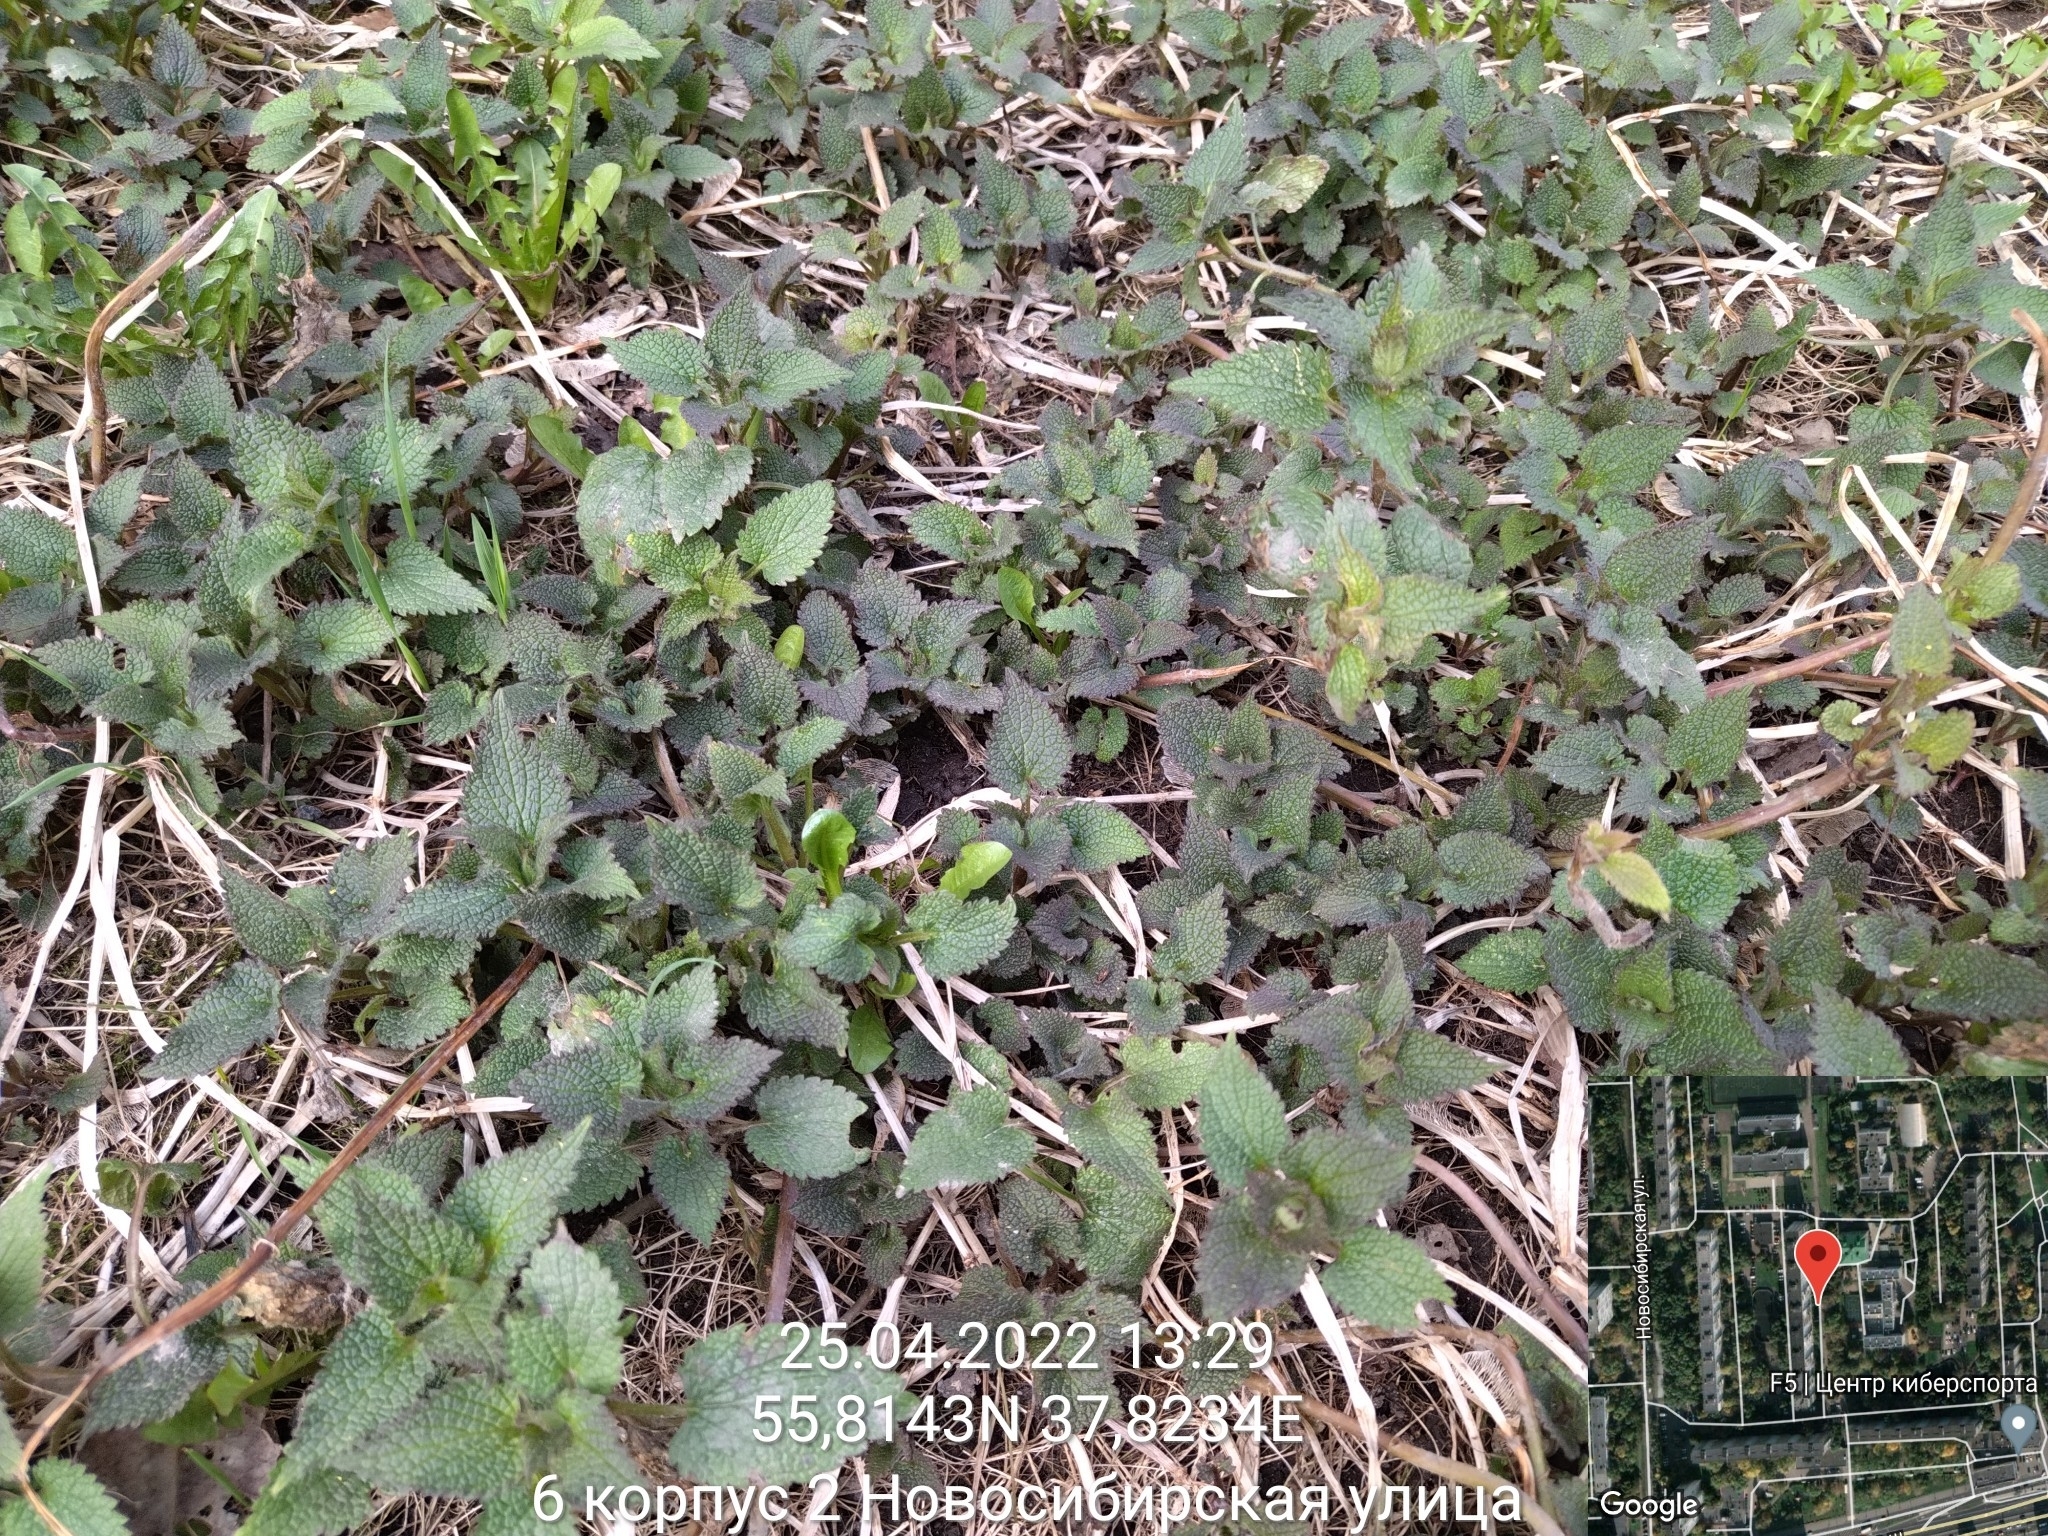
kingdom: Plantae
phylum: Tracheophyta
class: Magnoliopsida
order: Lamiales
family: Lamiaceae
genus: Lamium
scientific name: Lamium album
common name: White dead-nettle
